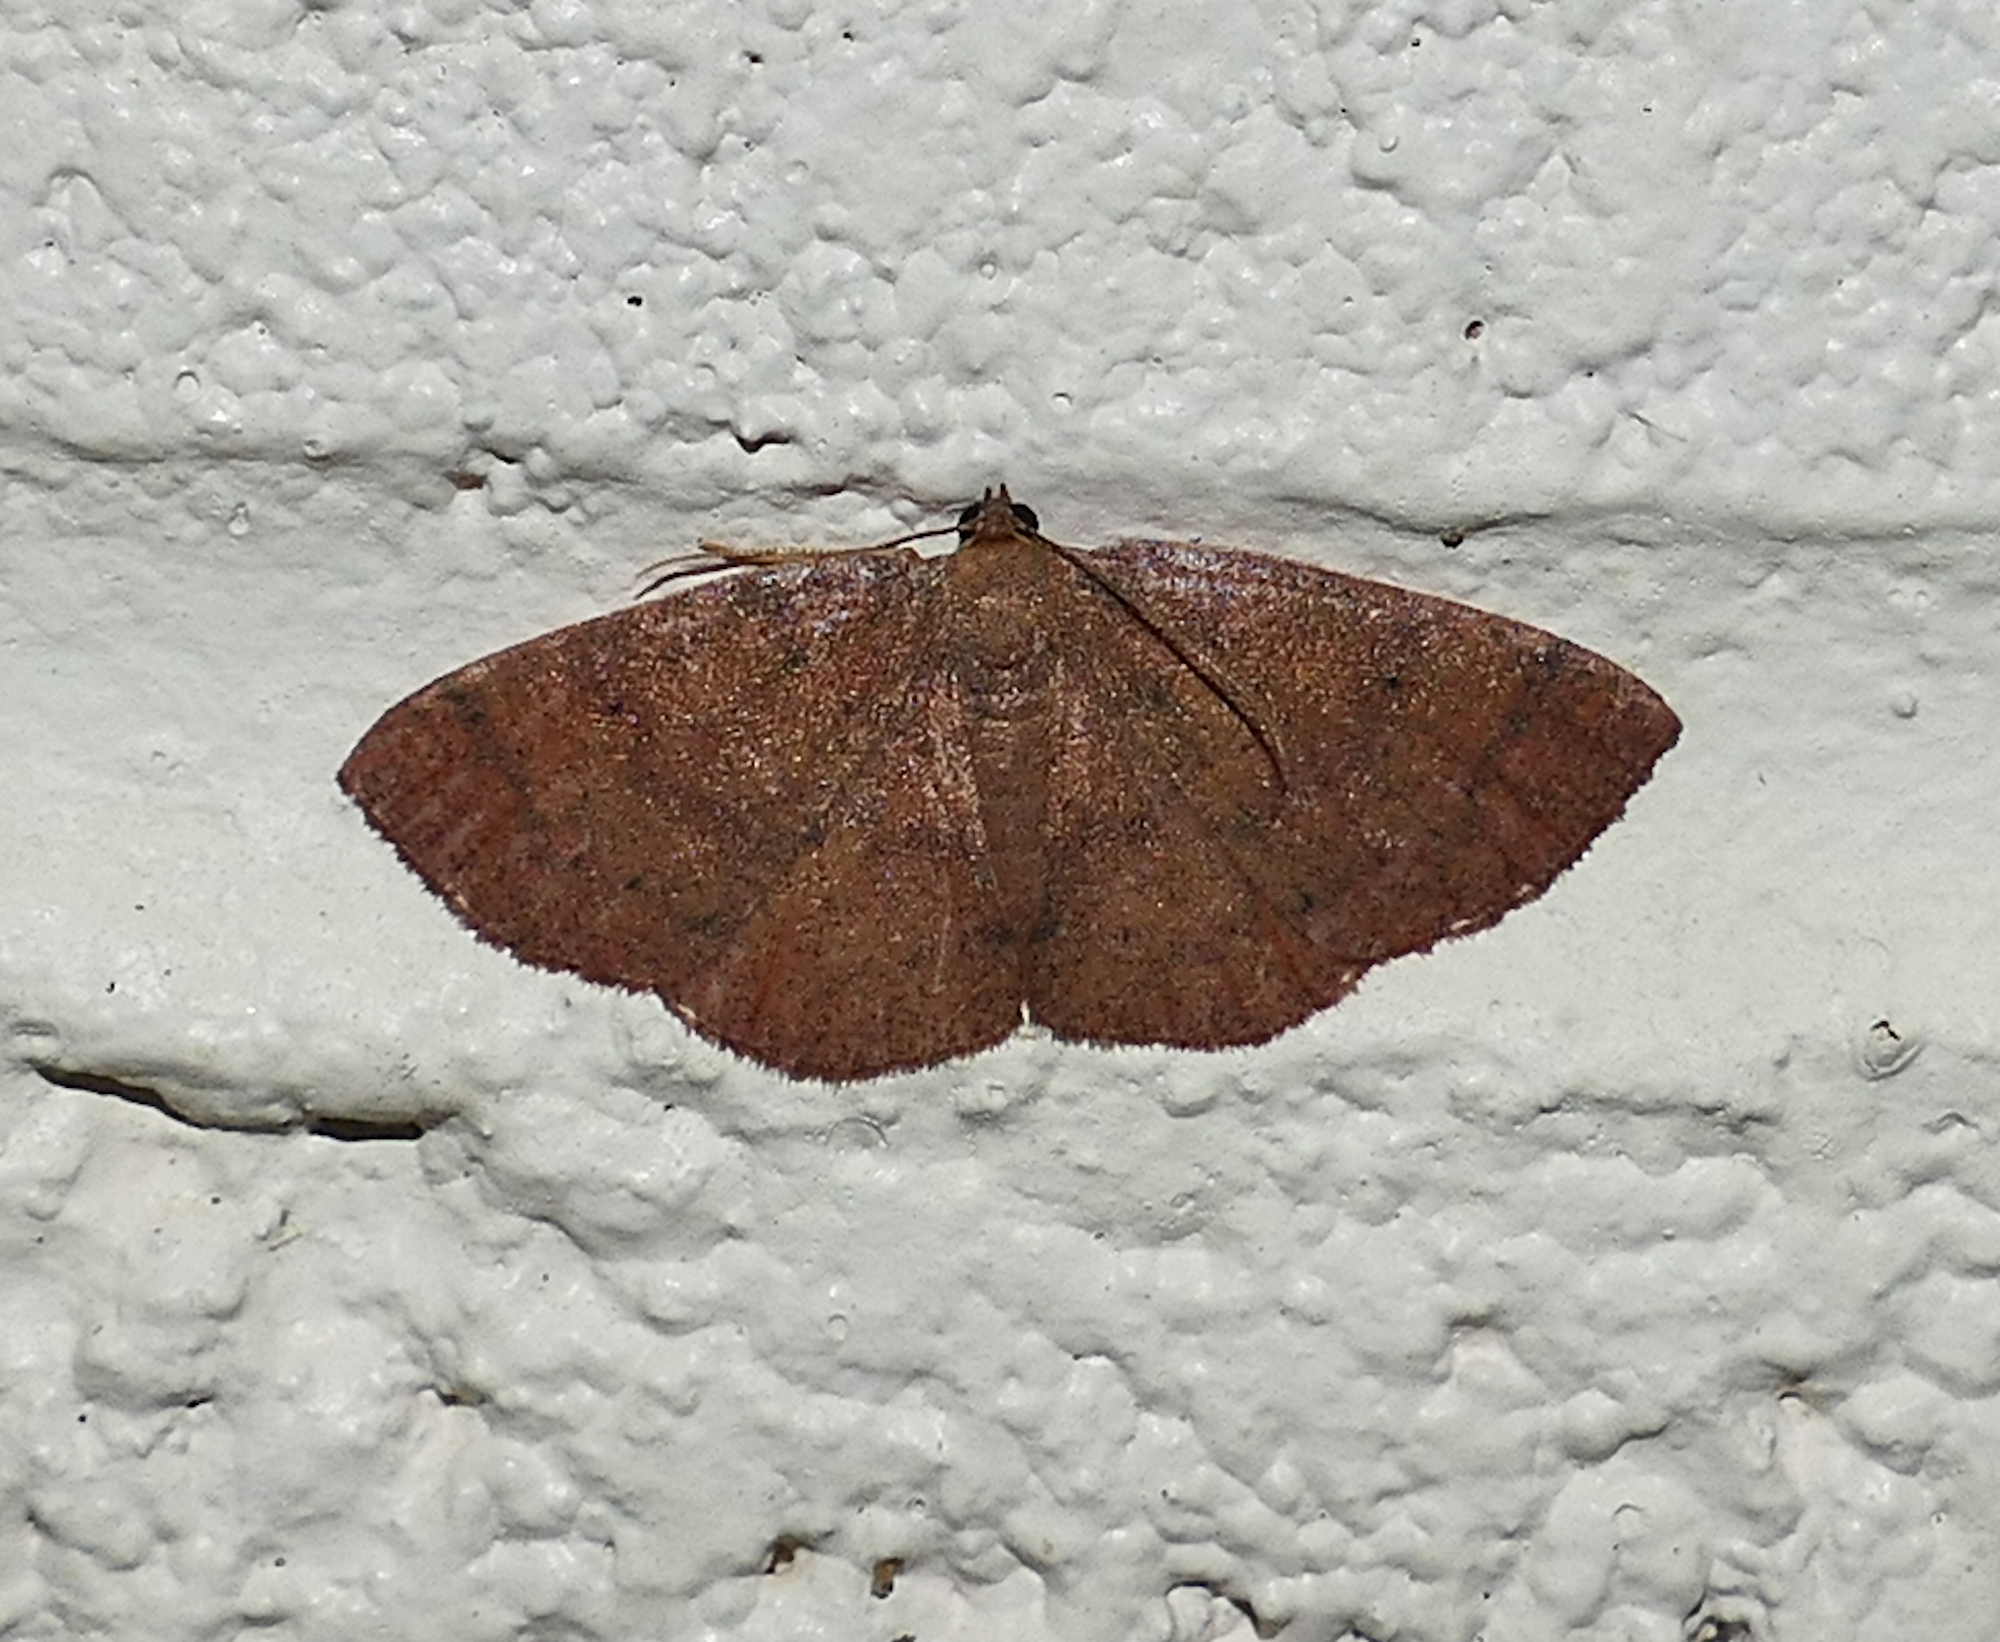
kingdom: Animalia
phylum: Arthropoda
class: Insecta
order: Lepidoptera
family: Geometridae
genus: Ilexia
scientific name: Ilexia intractata
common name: Black-dotted ruddy moth
